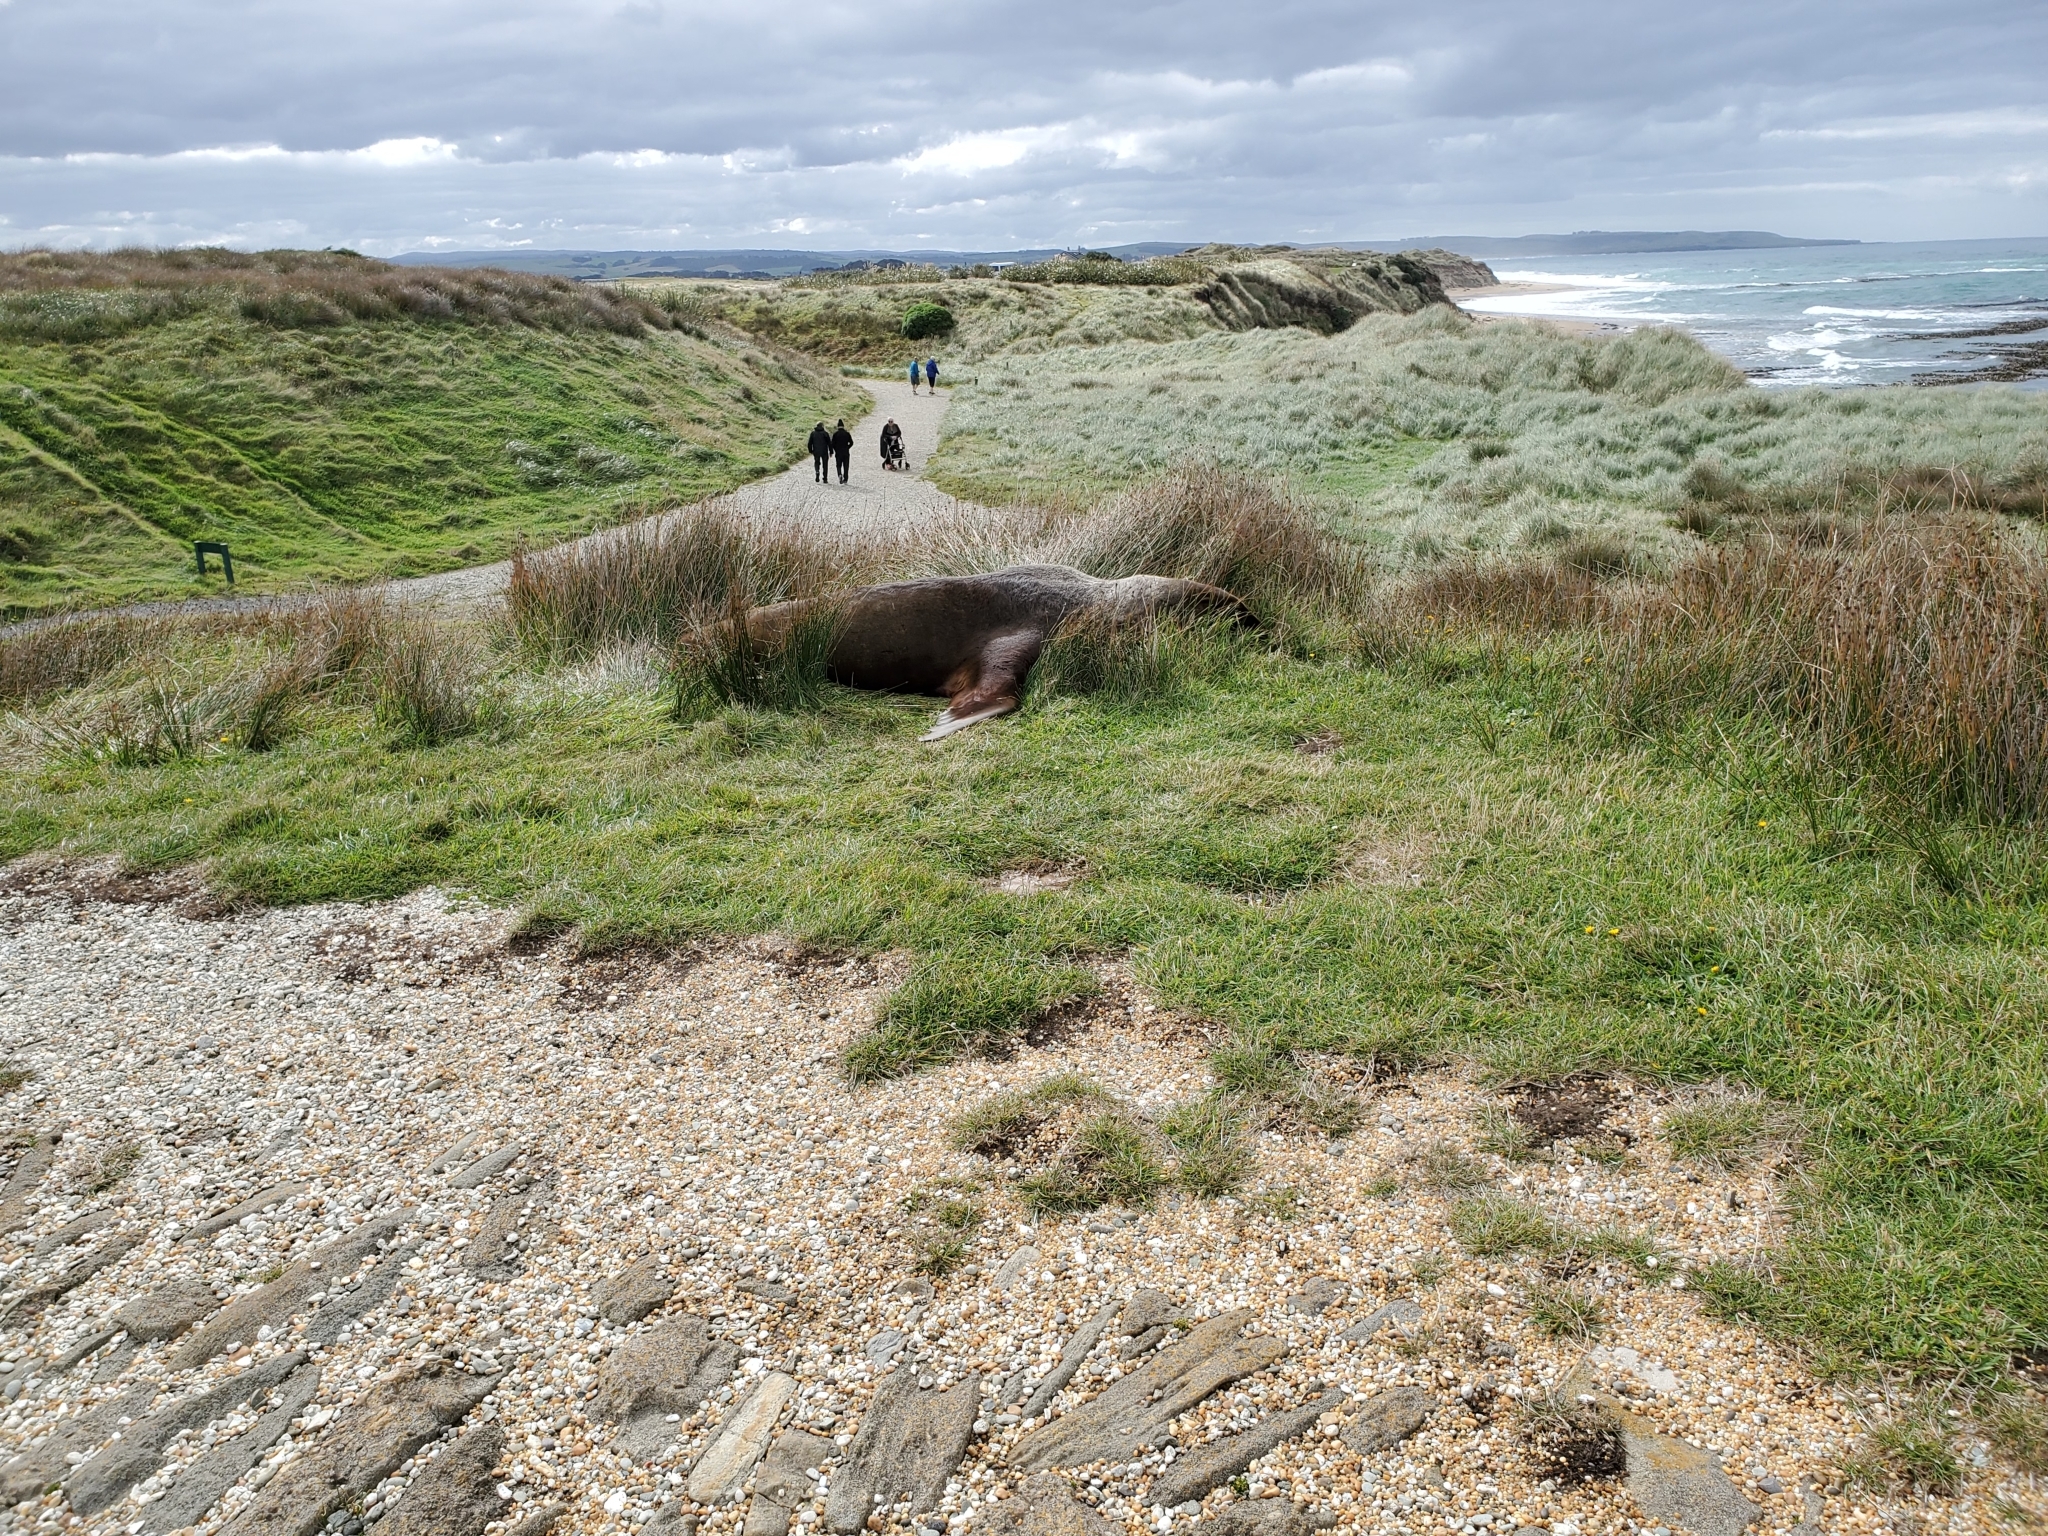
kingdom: Animalia
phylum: Chordata
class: Mammalia
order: Carnivora
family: Otariidae
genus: Phocarctos
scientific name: Phocarctos hookeri
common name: New zealand sea lion
